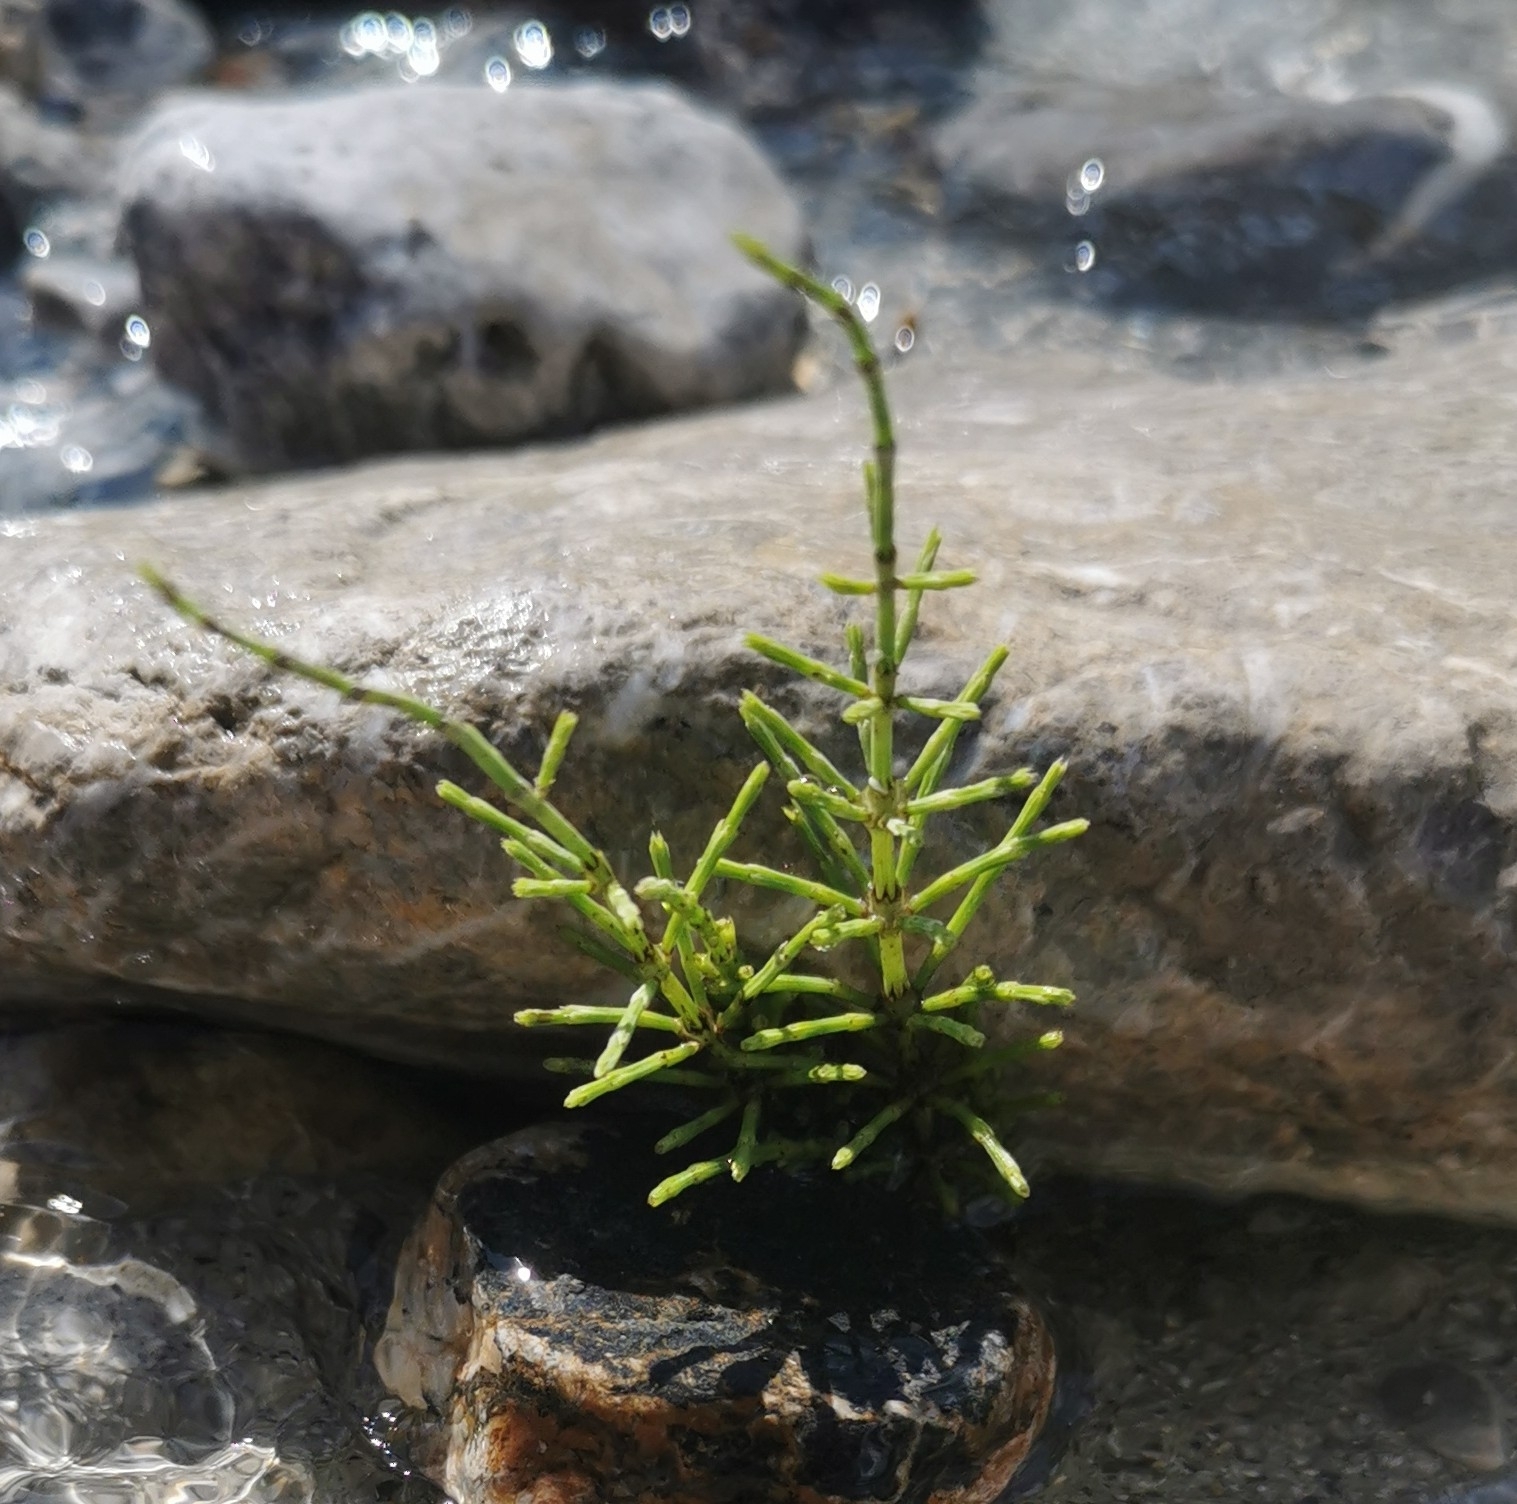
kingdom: Plantae
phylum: Tracheophyta
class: Polypodiopsida
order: Equisetales
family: Equisetaceae
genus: Equisetum
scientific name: Equisetum arvense
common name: Field horsetail
